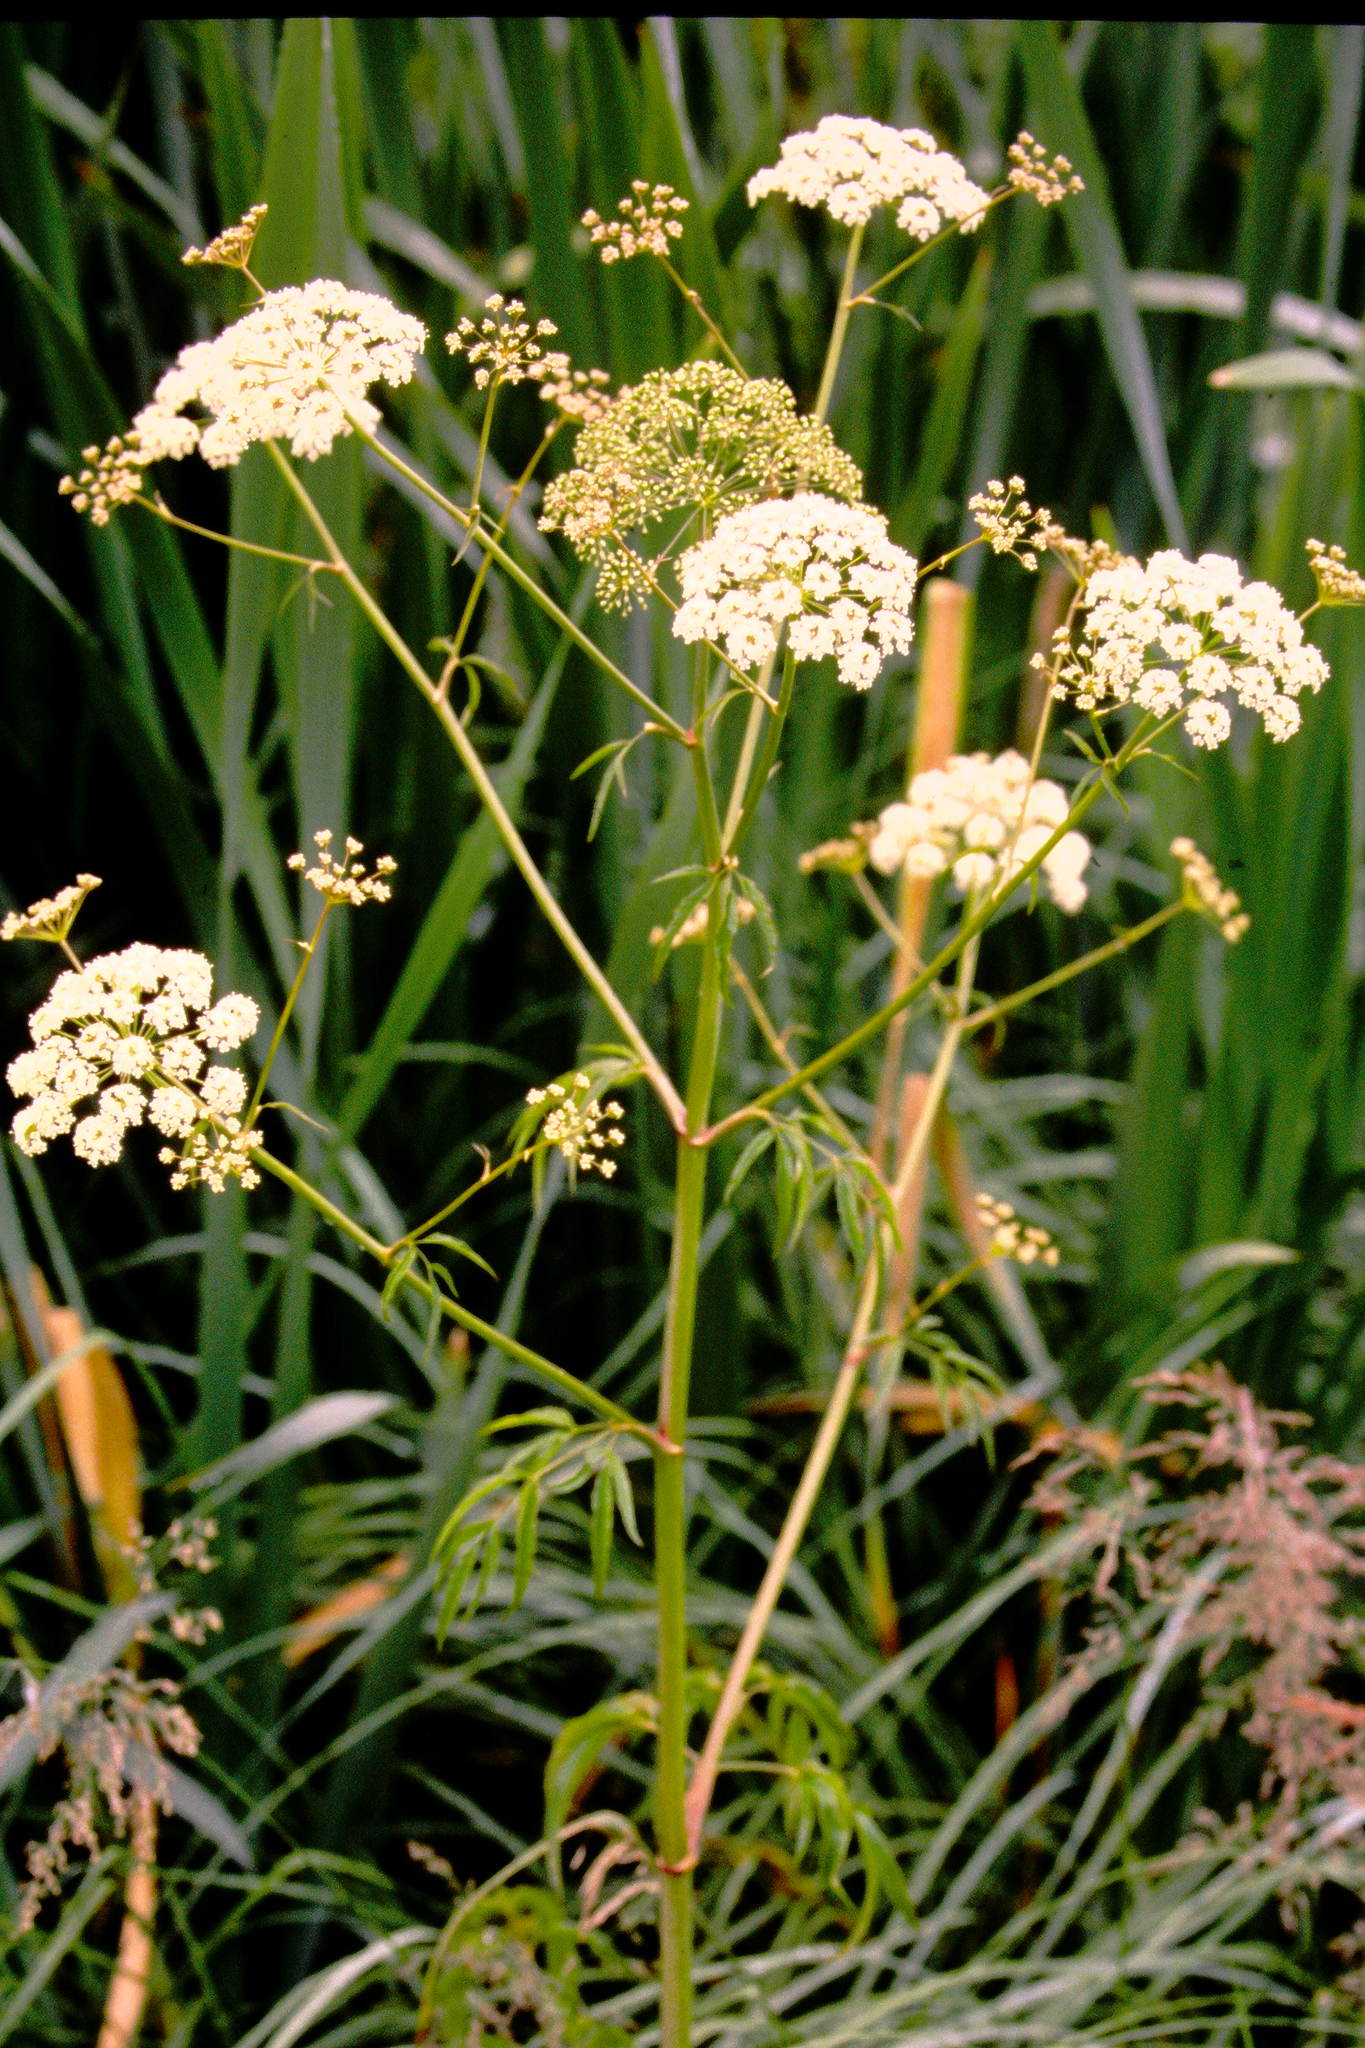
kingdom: Plantae
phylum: Tracheophyta
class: Magnoliopsida
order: Apiales
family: Apiaceae
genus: Cicuta
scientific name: Cicuta maculata
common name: Spotted cowbane
